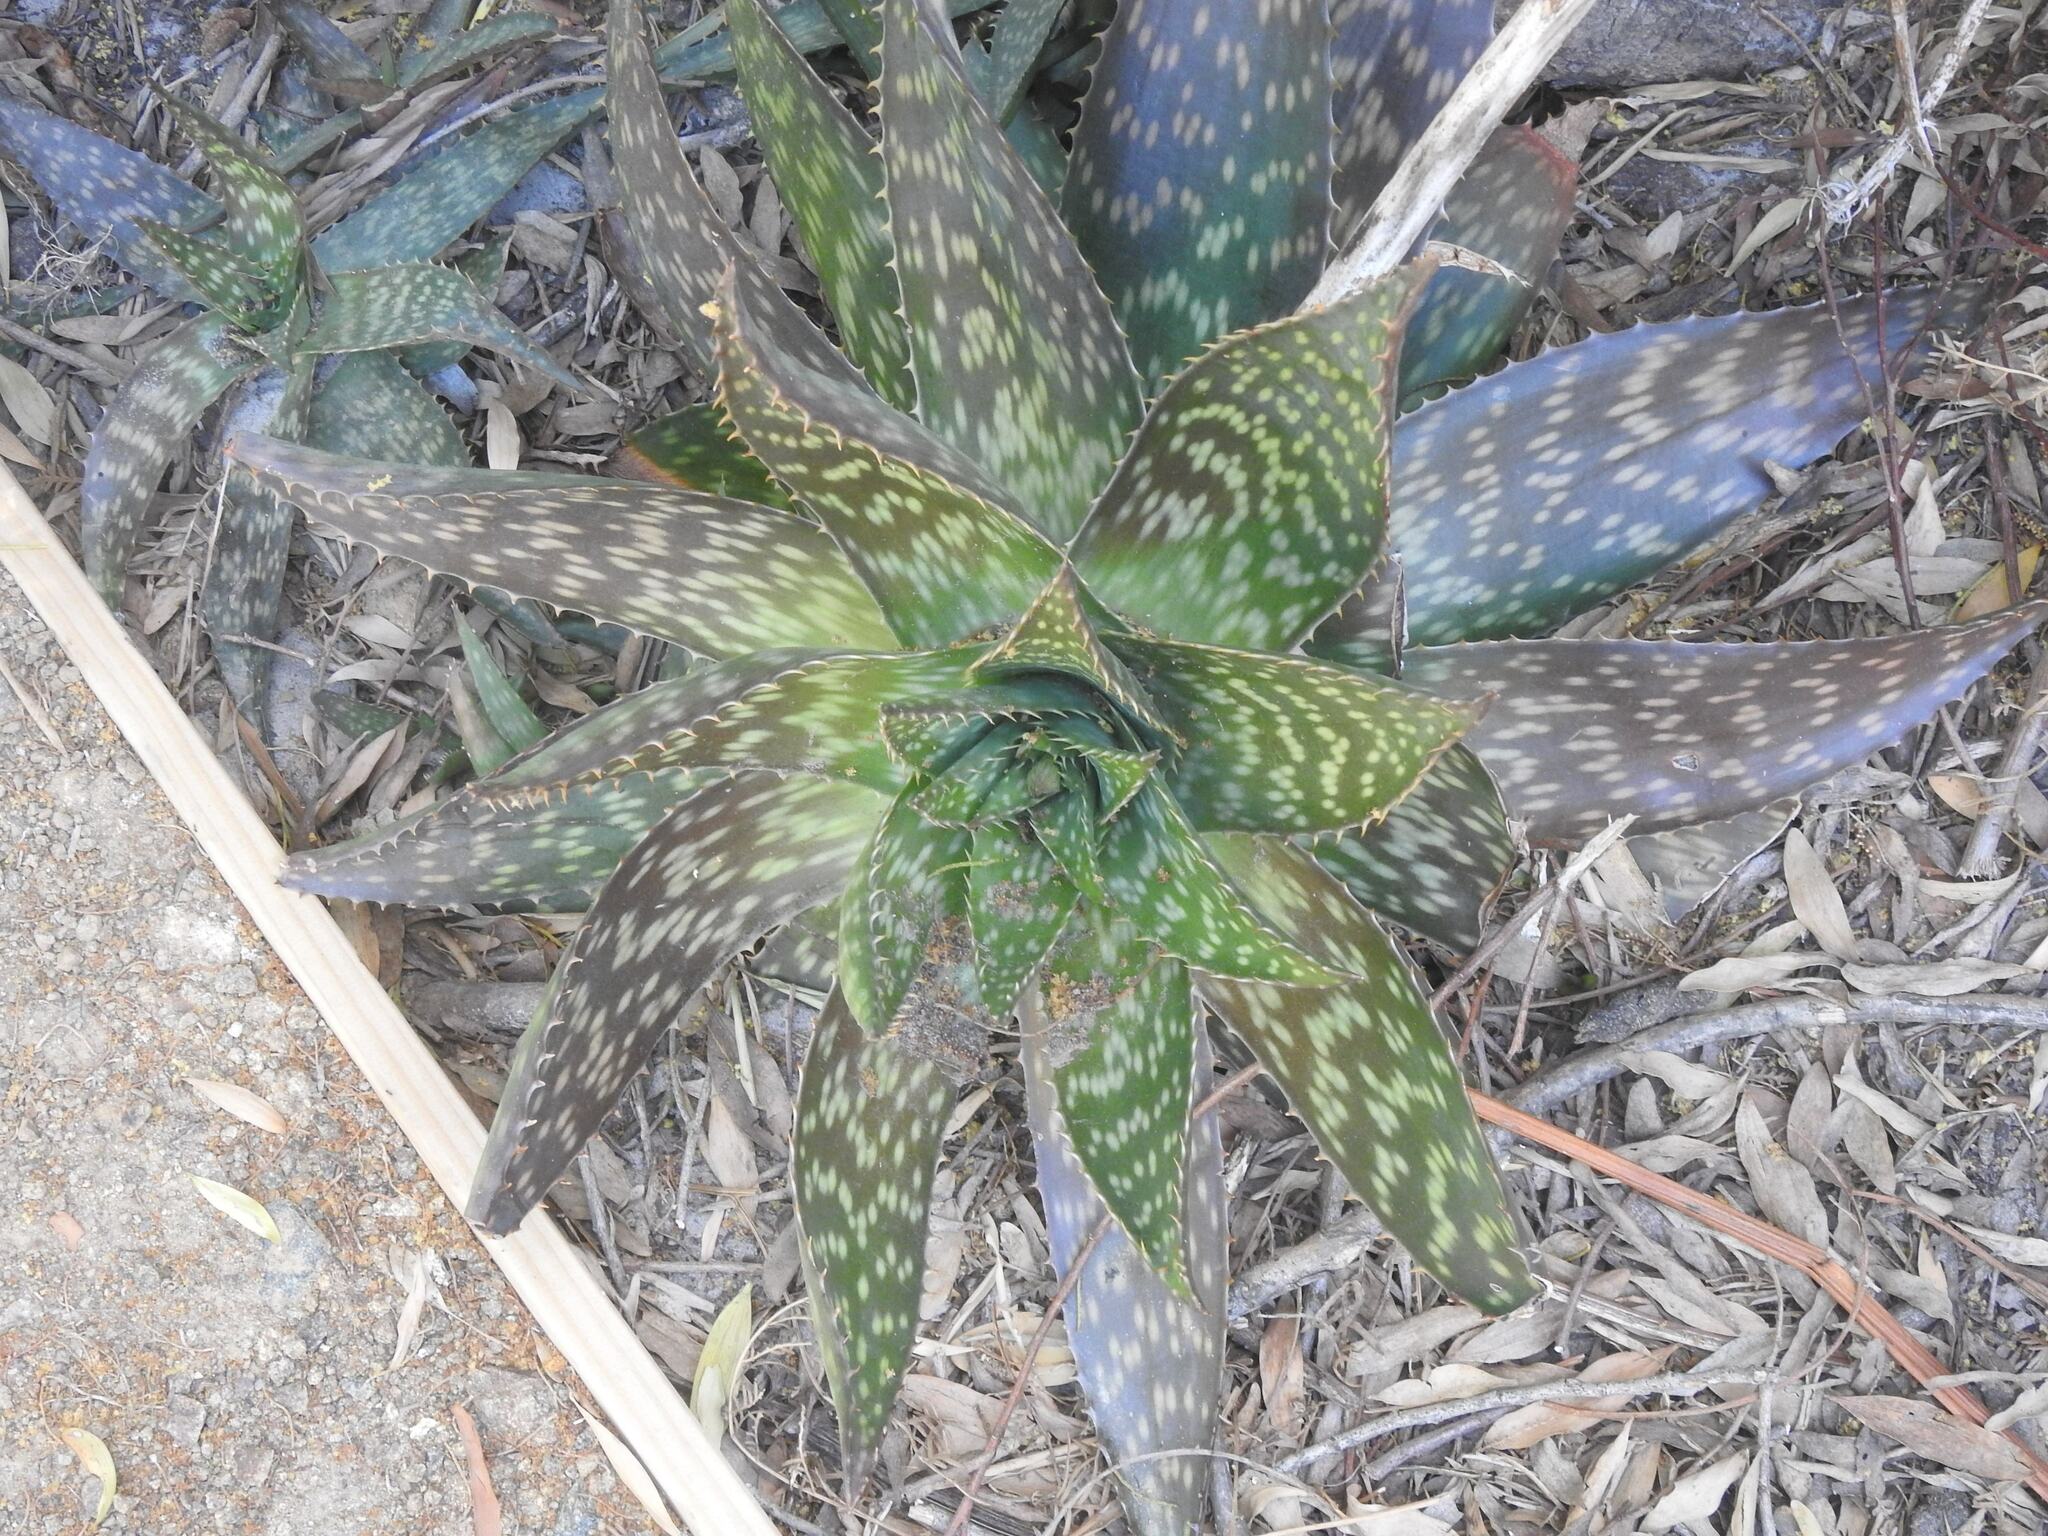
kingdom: Plantae
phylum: Tracheophyta
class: Liliopsida
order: Asparagales
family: Asphodelaceae
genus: Aloe
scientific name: Aloe maculata
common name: Broadleaf aloe
